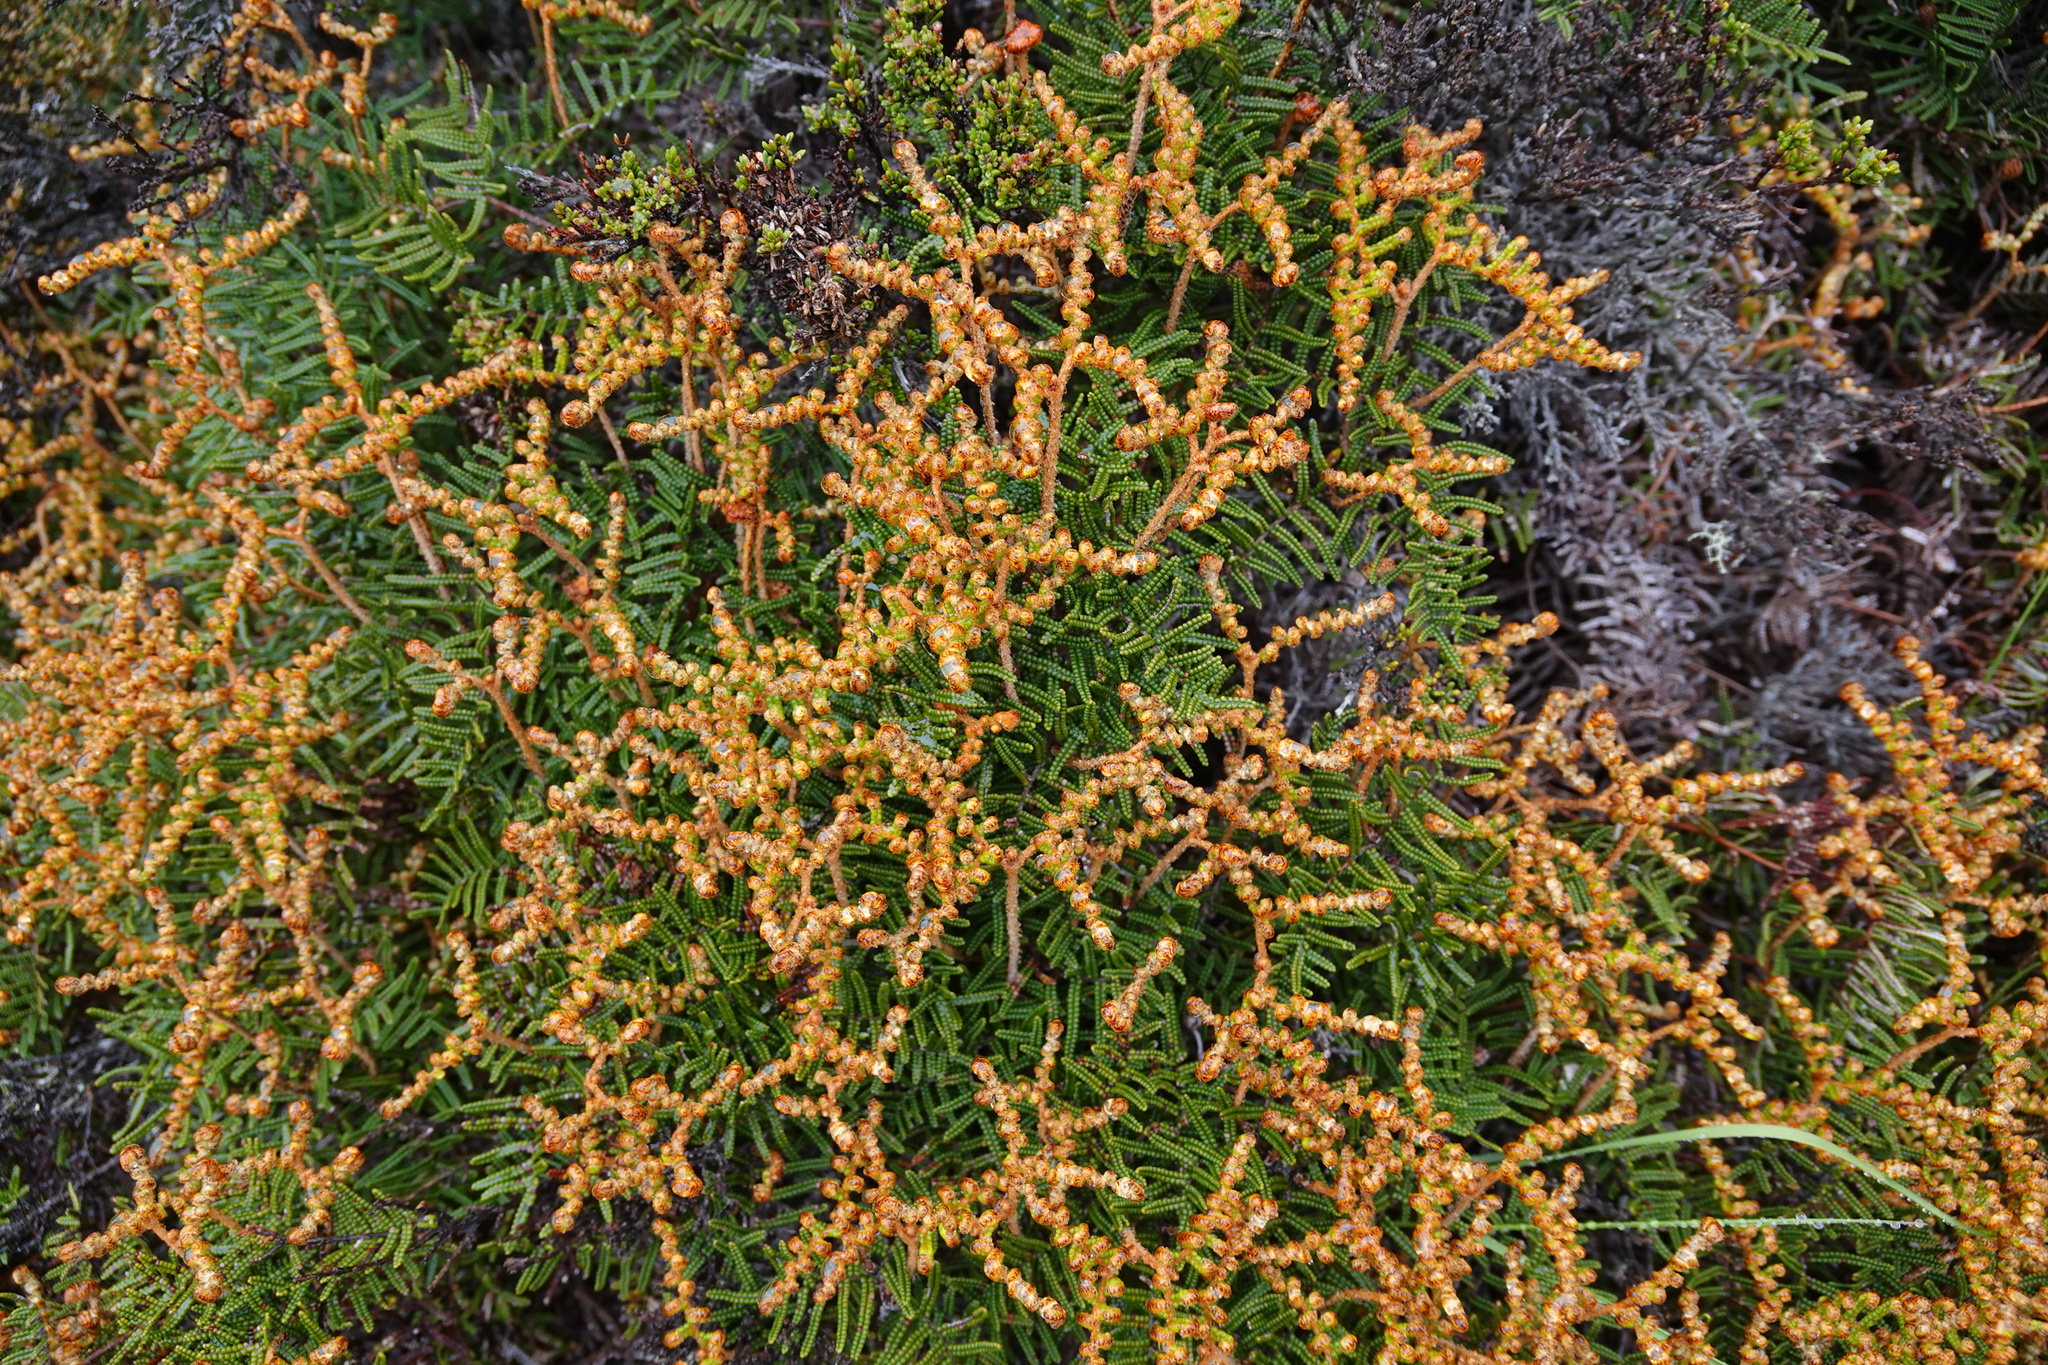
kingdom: Plantae
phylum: Tracheophyta
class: Polypodiopsida
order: Gleicheniales
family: Gleicheniaceae
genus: Gleichenia
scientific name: Gleichenia alpina
